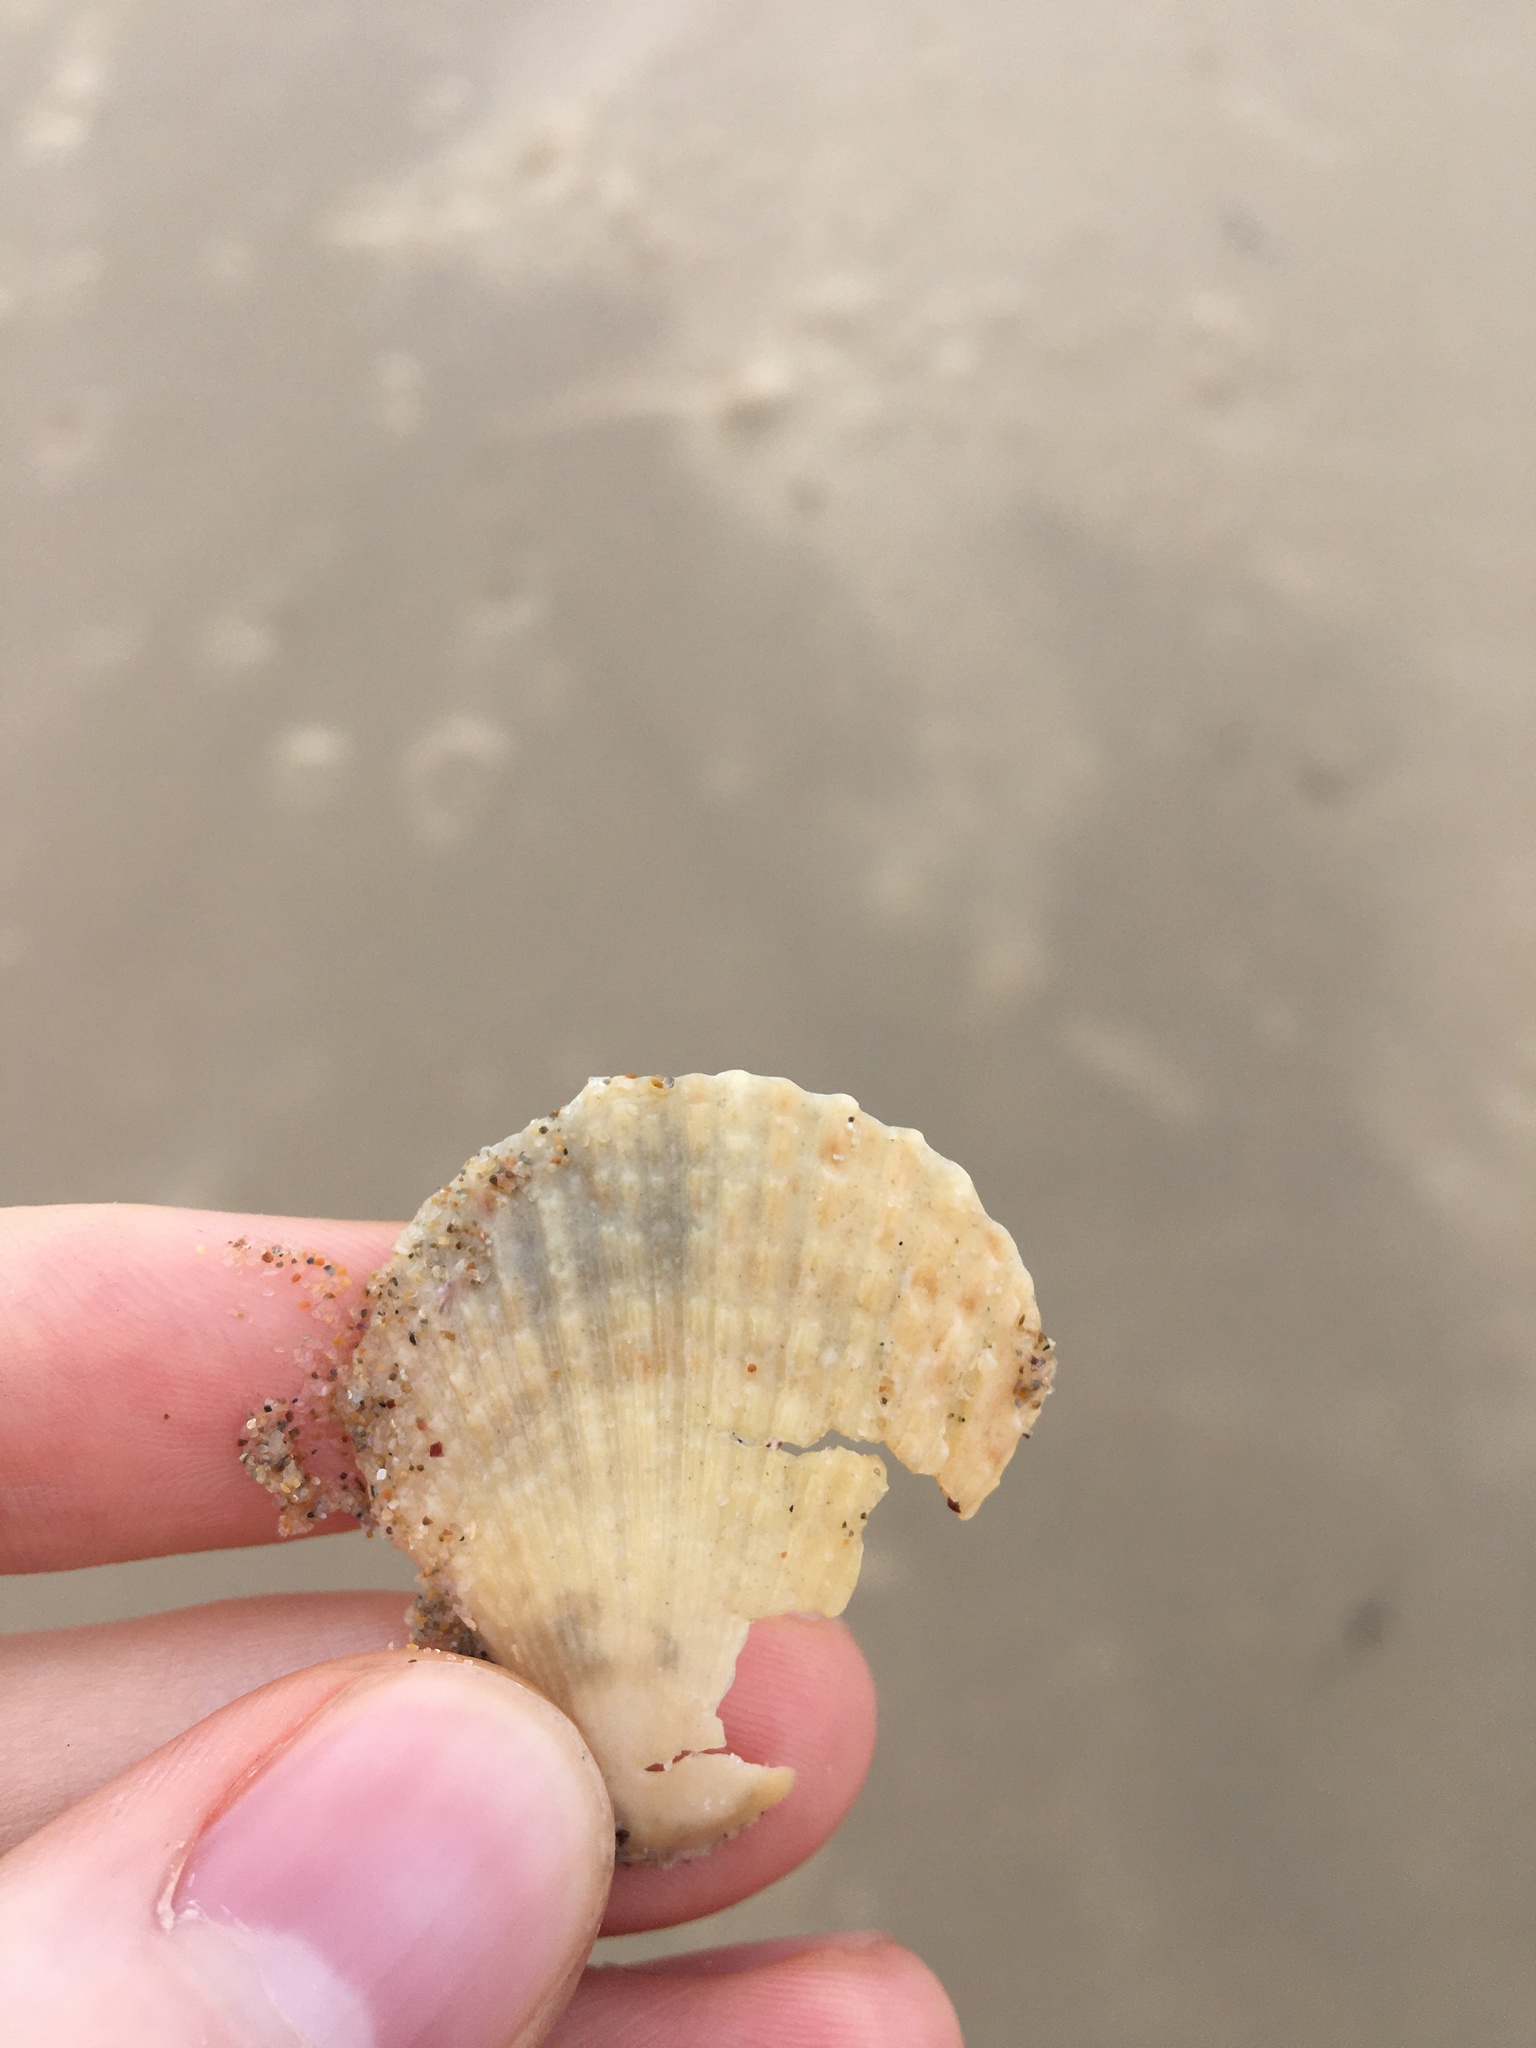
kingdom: Animalia
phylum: Mollusca
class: Bivalvia
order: Pectinida
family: Pectinidae
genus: Scaeochlamys
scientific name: Scaeochlamys livida
